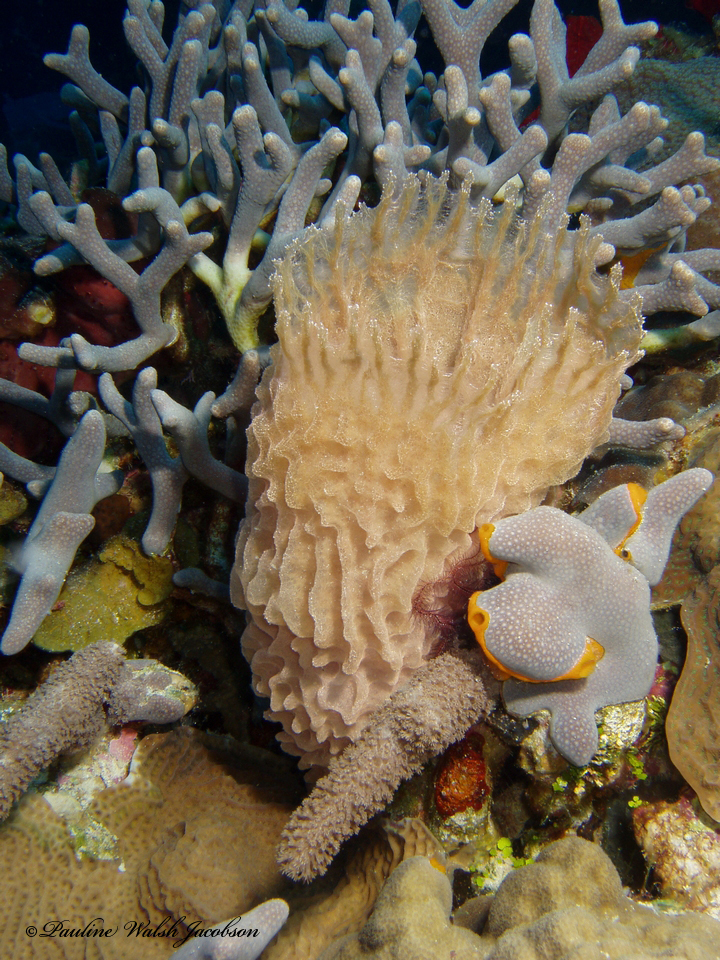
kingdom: Animalia
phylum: Porifera
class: Demospongiae
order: Haplosclerida
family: Callyspongiidae
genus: Callyspongia
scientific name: Callyspongia plicifera
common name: Azure vase sponge
